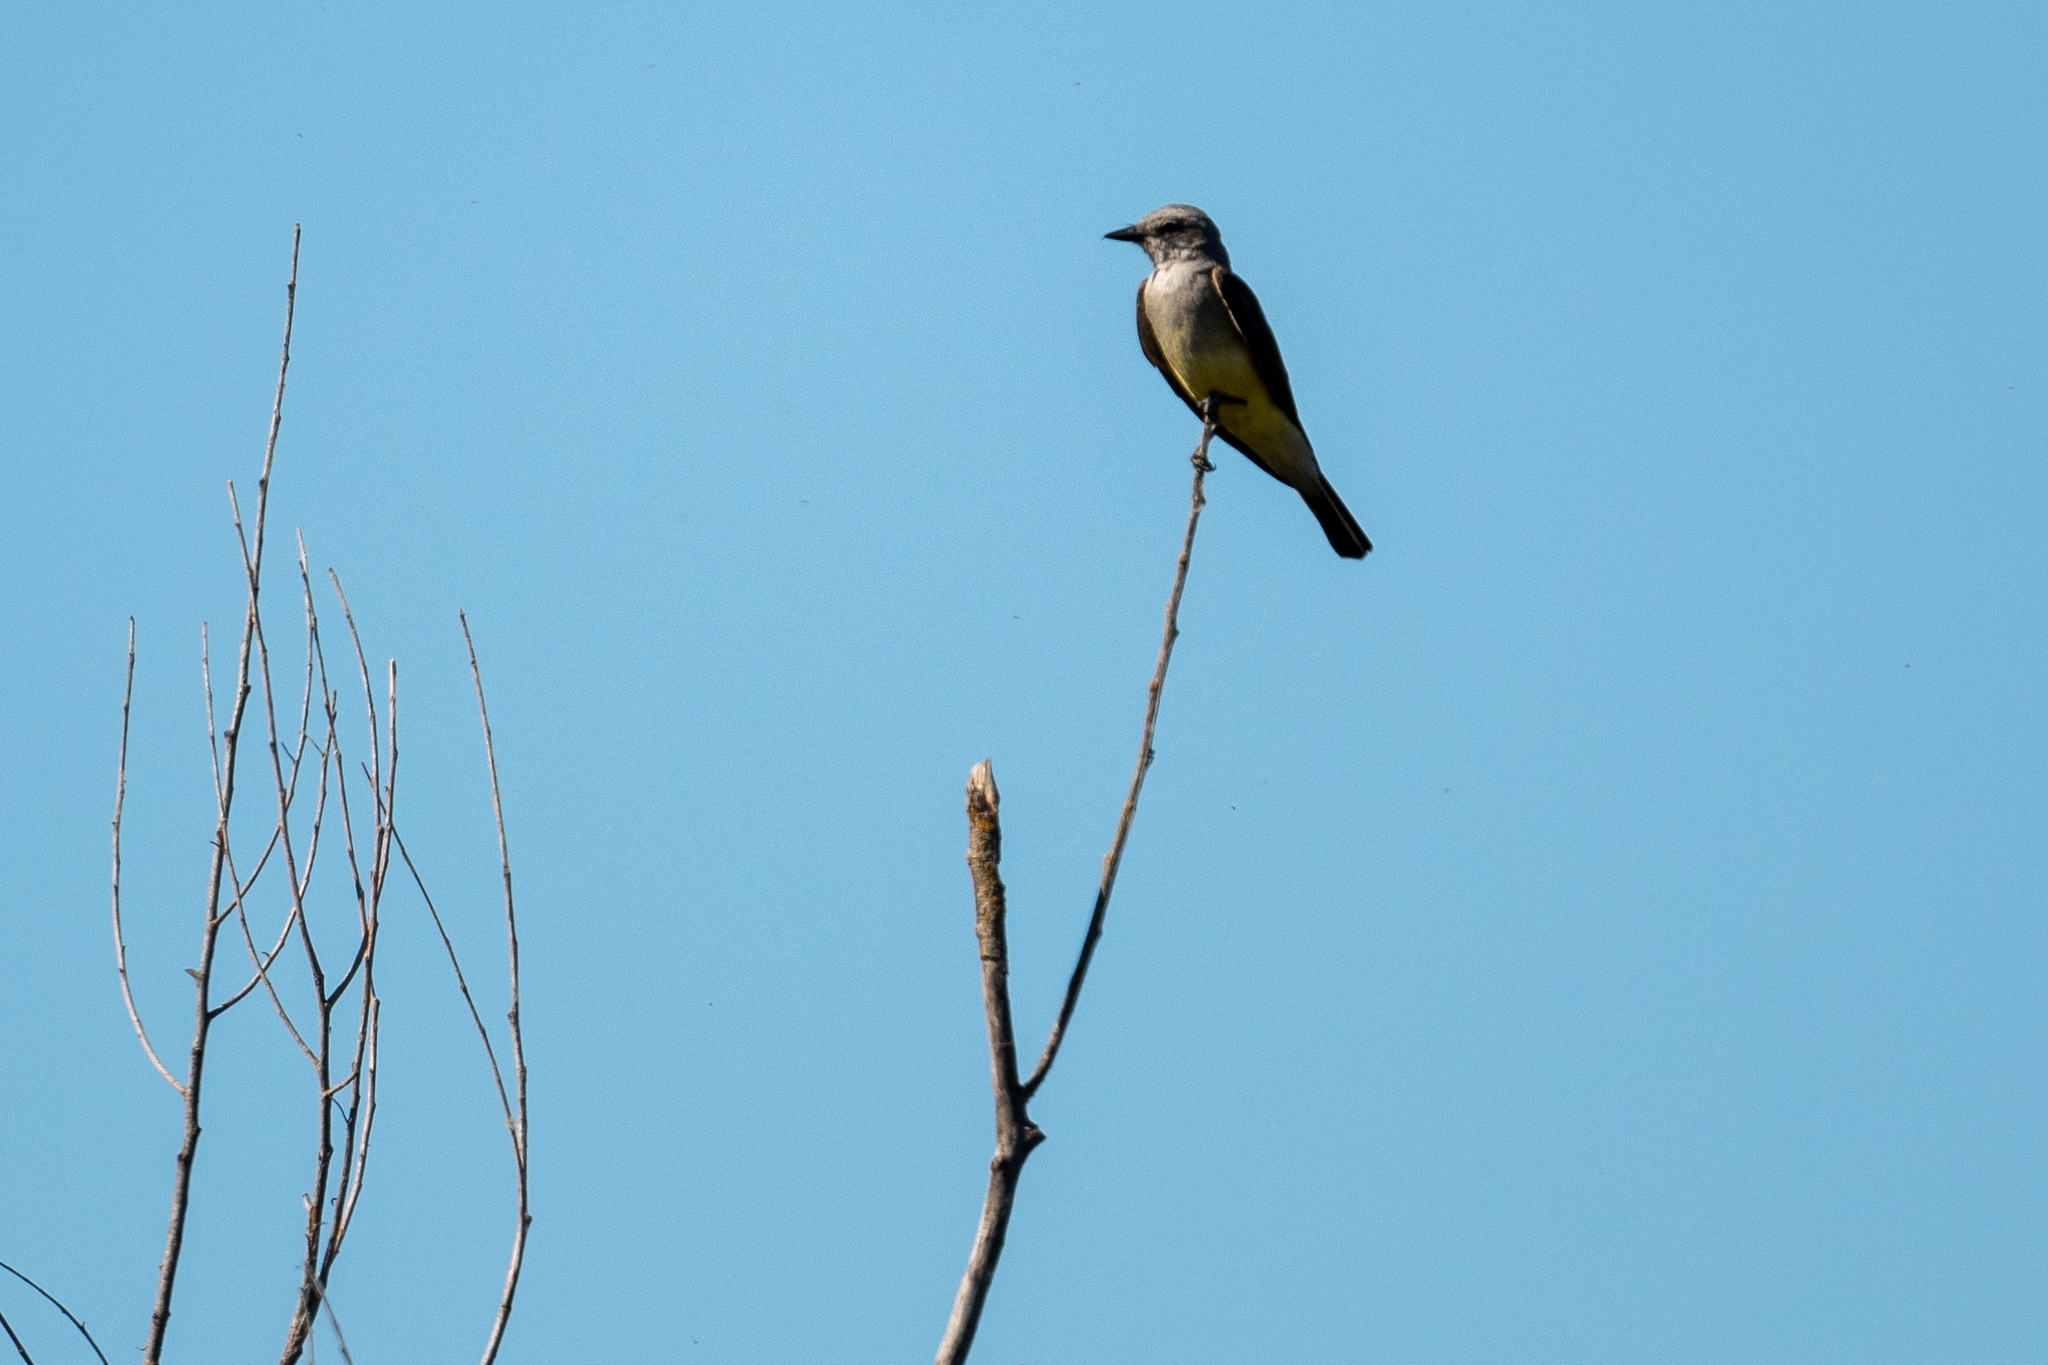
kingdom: Animalia
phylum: Chordata
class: Aves
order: Passeriformes
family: Tyrannidae
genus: Tyrannus
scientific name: Tyrannus verticalis
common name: Western kingbird
